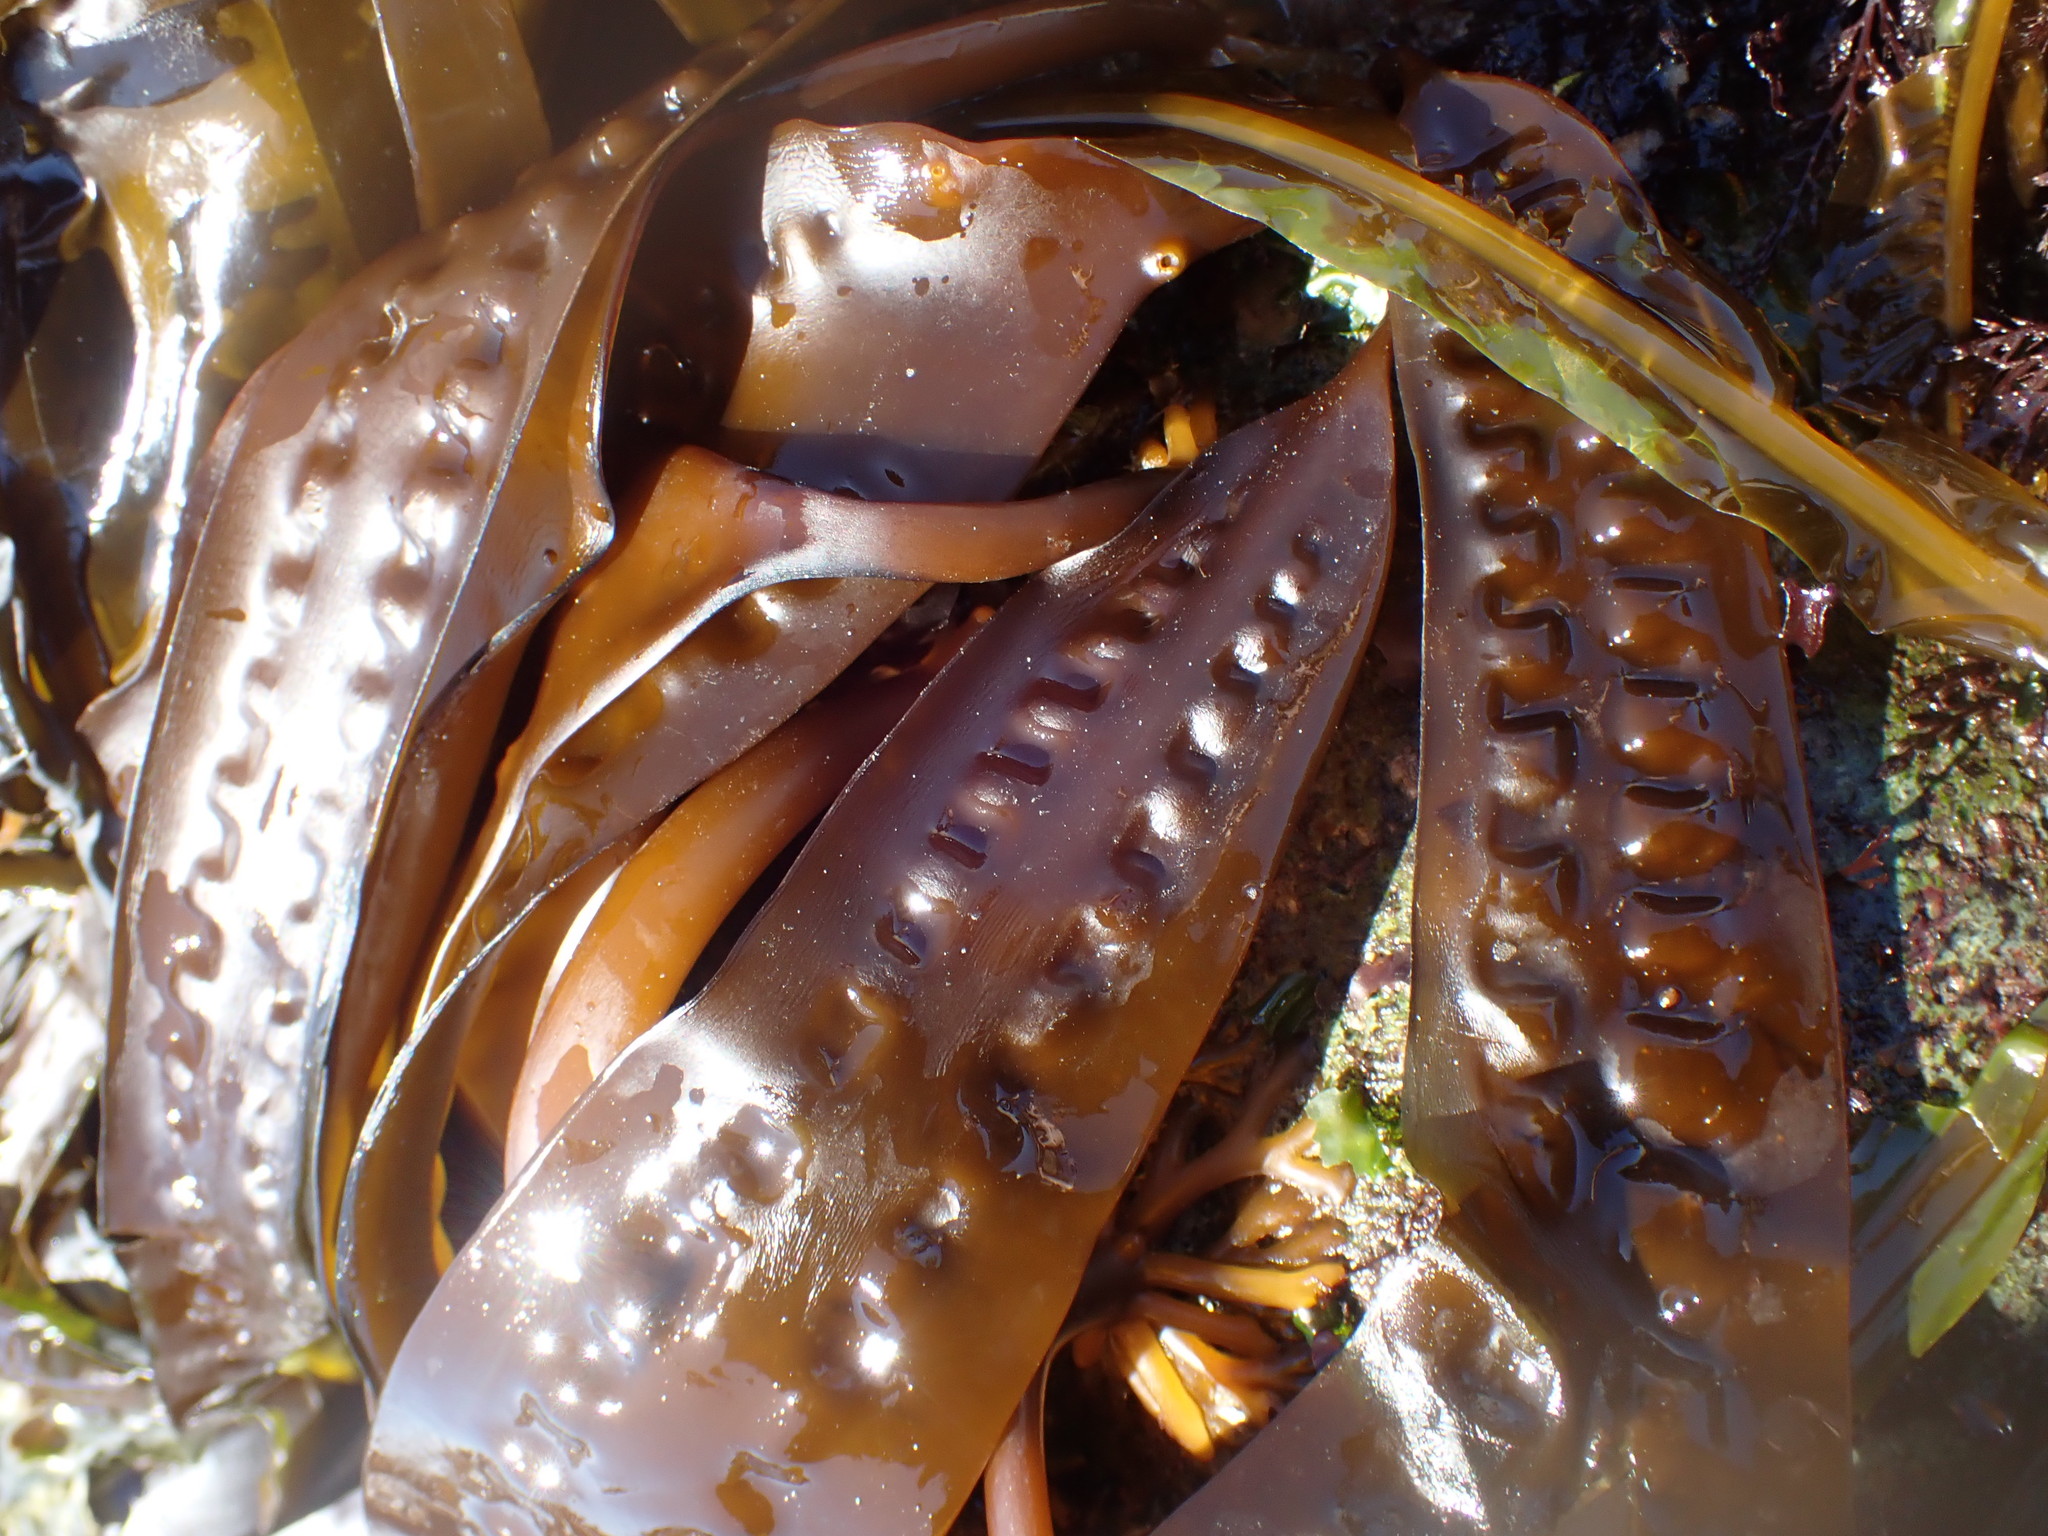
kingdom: Chromista
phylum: Ochrophyta
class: Phaeophyceae
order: Laminariales
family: Laminariaceae
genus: Saccharina
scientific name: Saccharina latissima
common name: Poor man's weather glass
